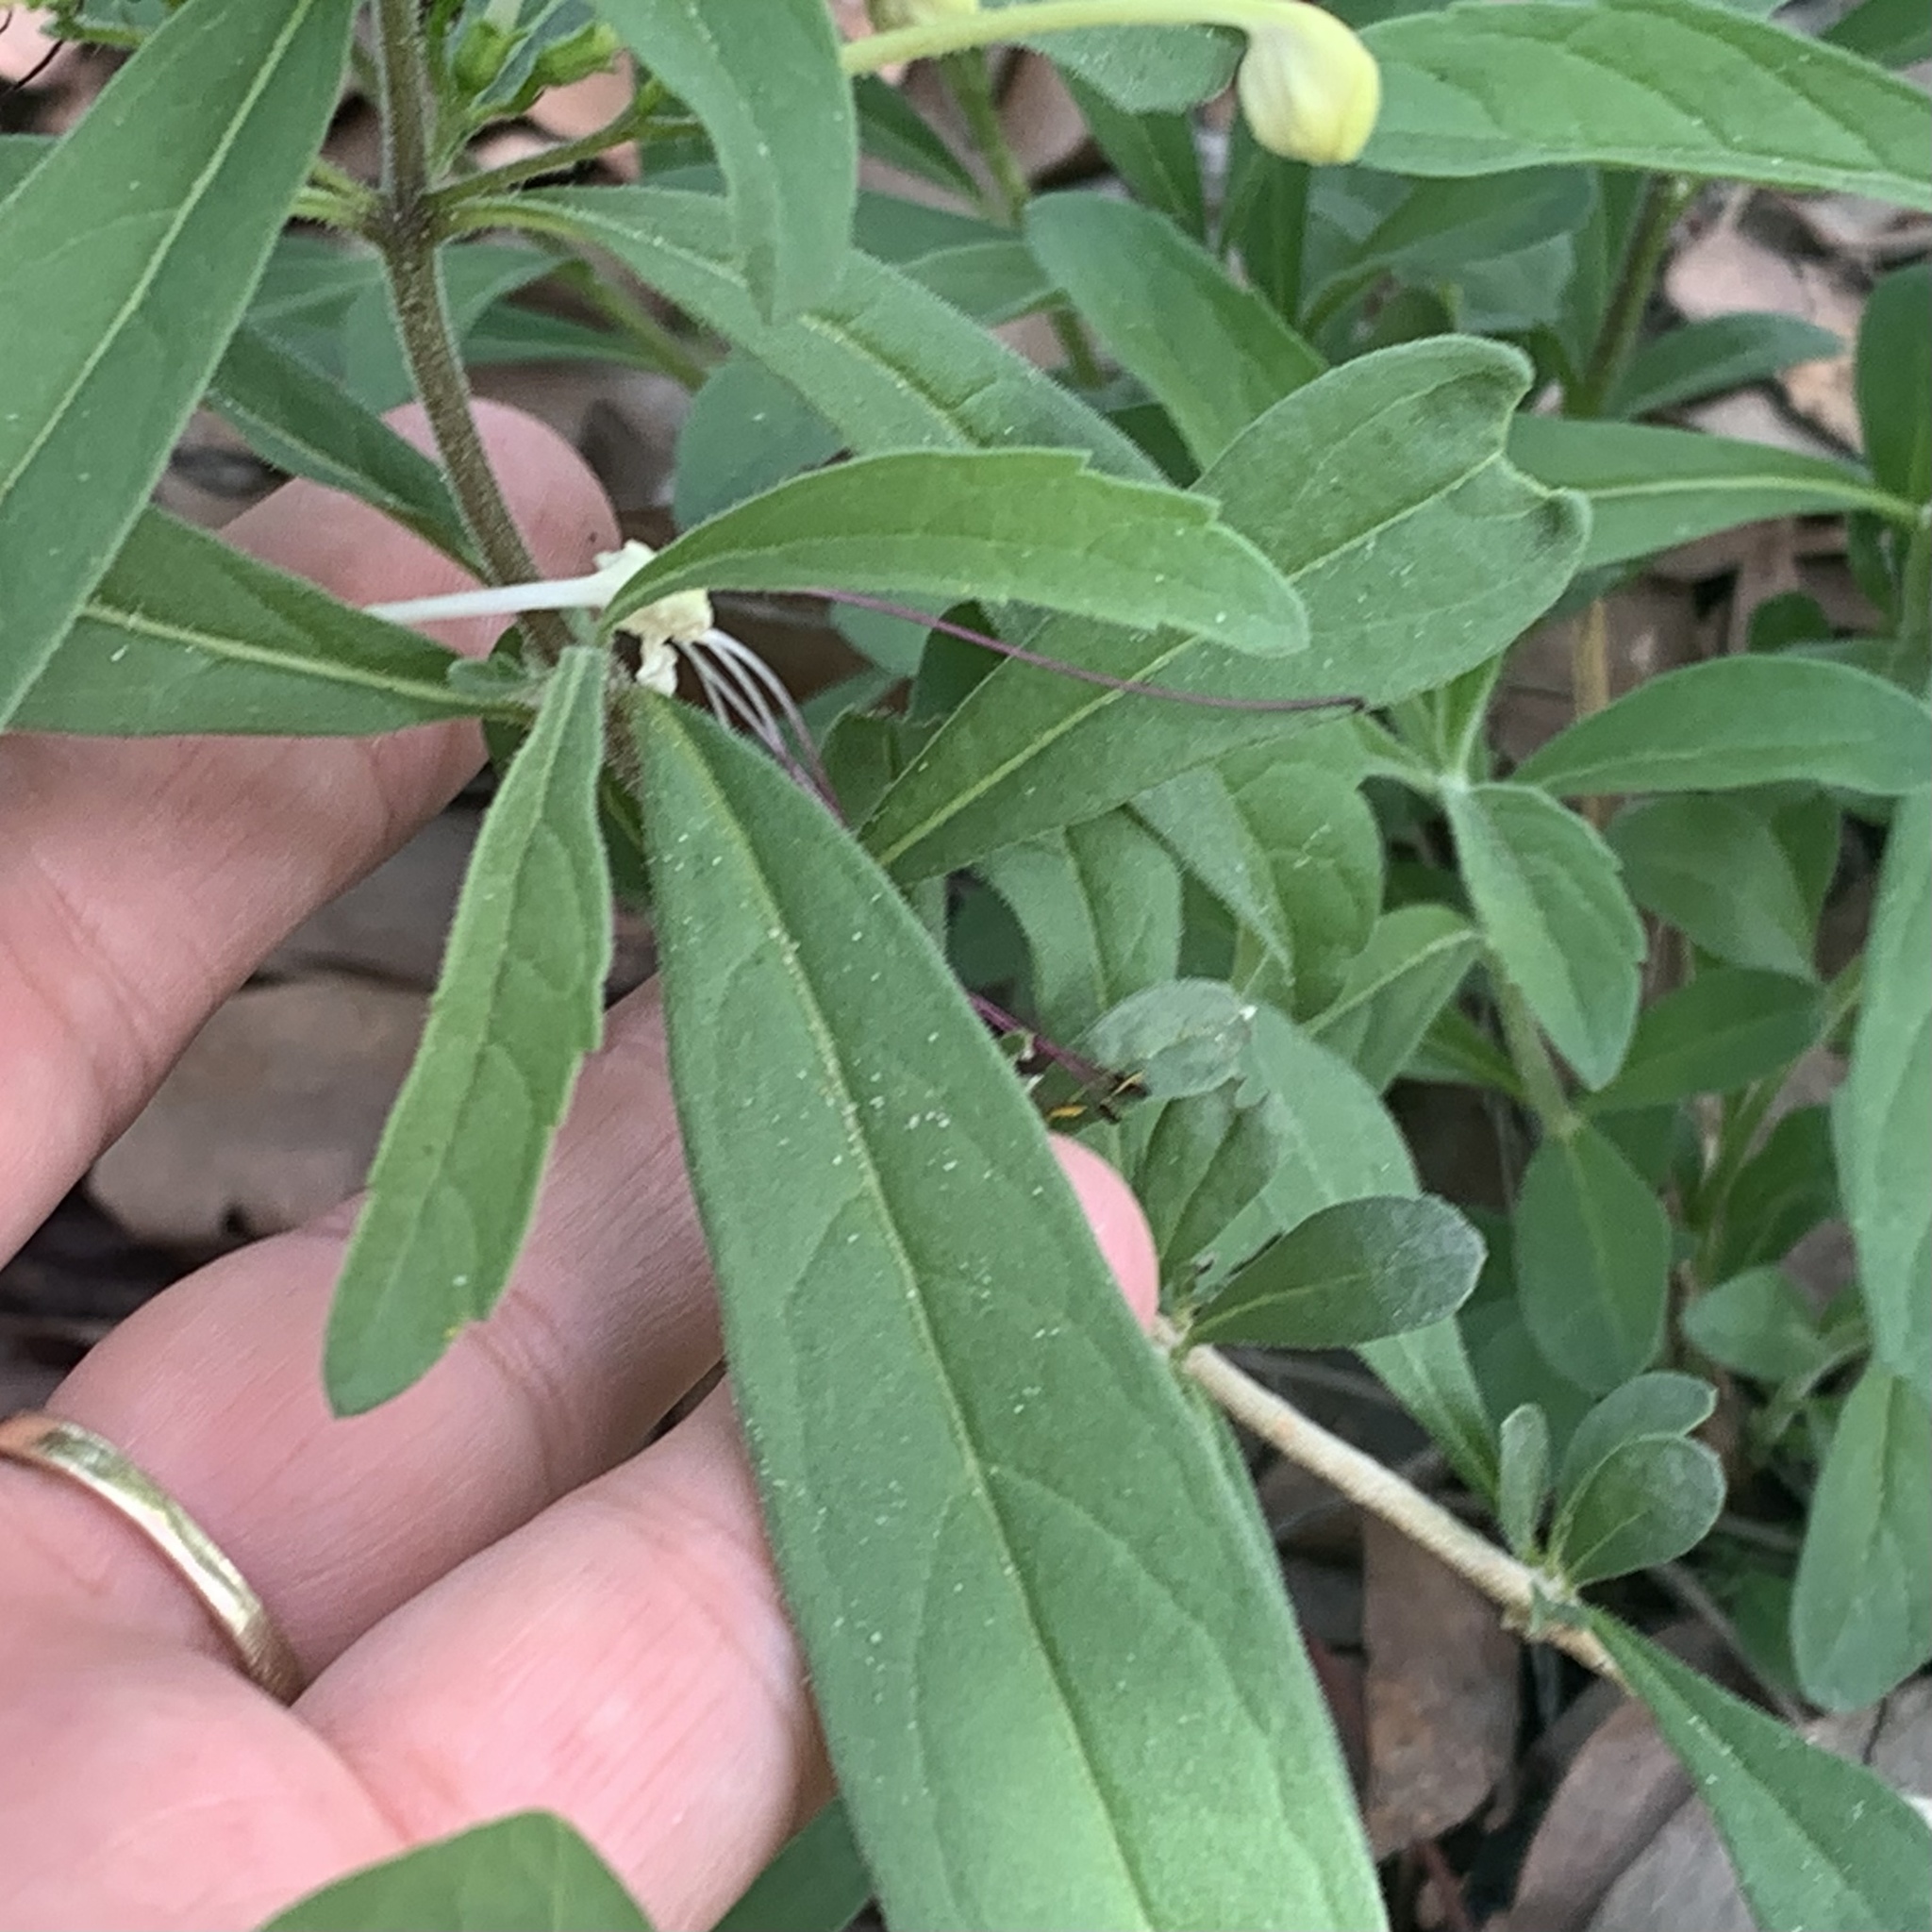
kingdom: Plantae
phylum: Tracheophyta
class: Magnoliopsida
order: Lamiales
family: Lamiaceae
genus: Clerodendrum
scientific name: Clerodendrum ternatum
